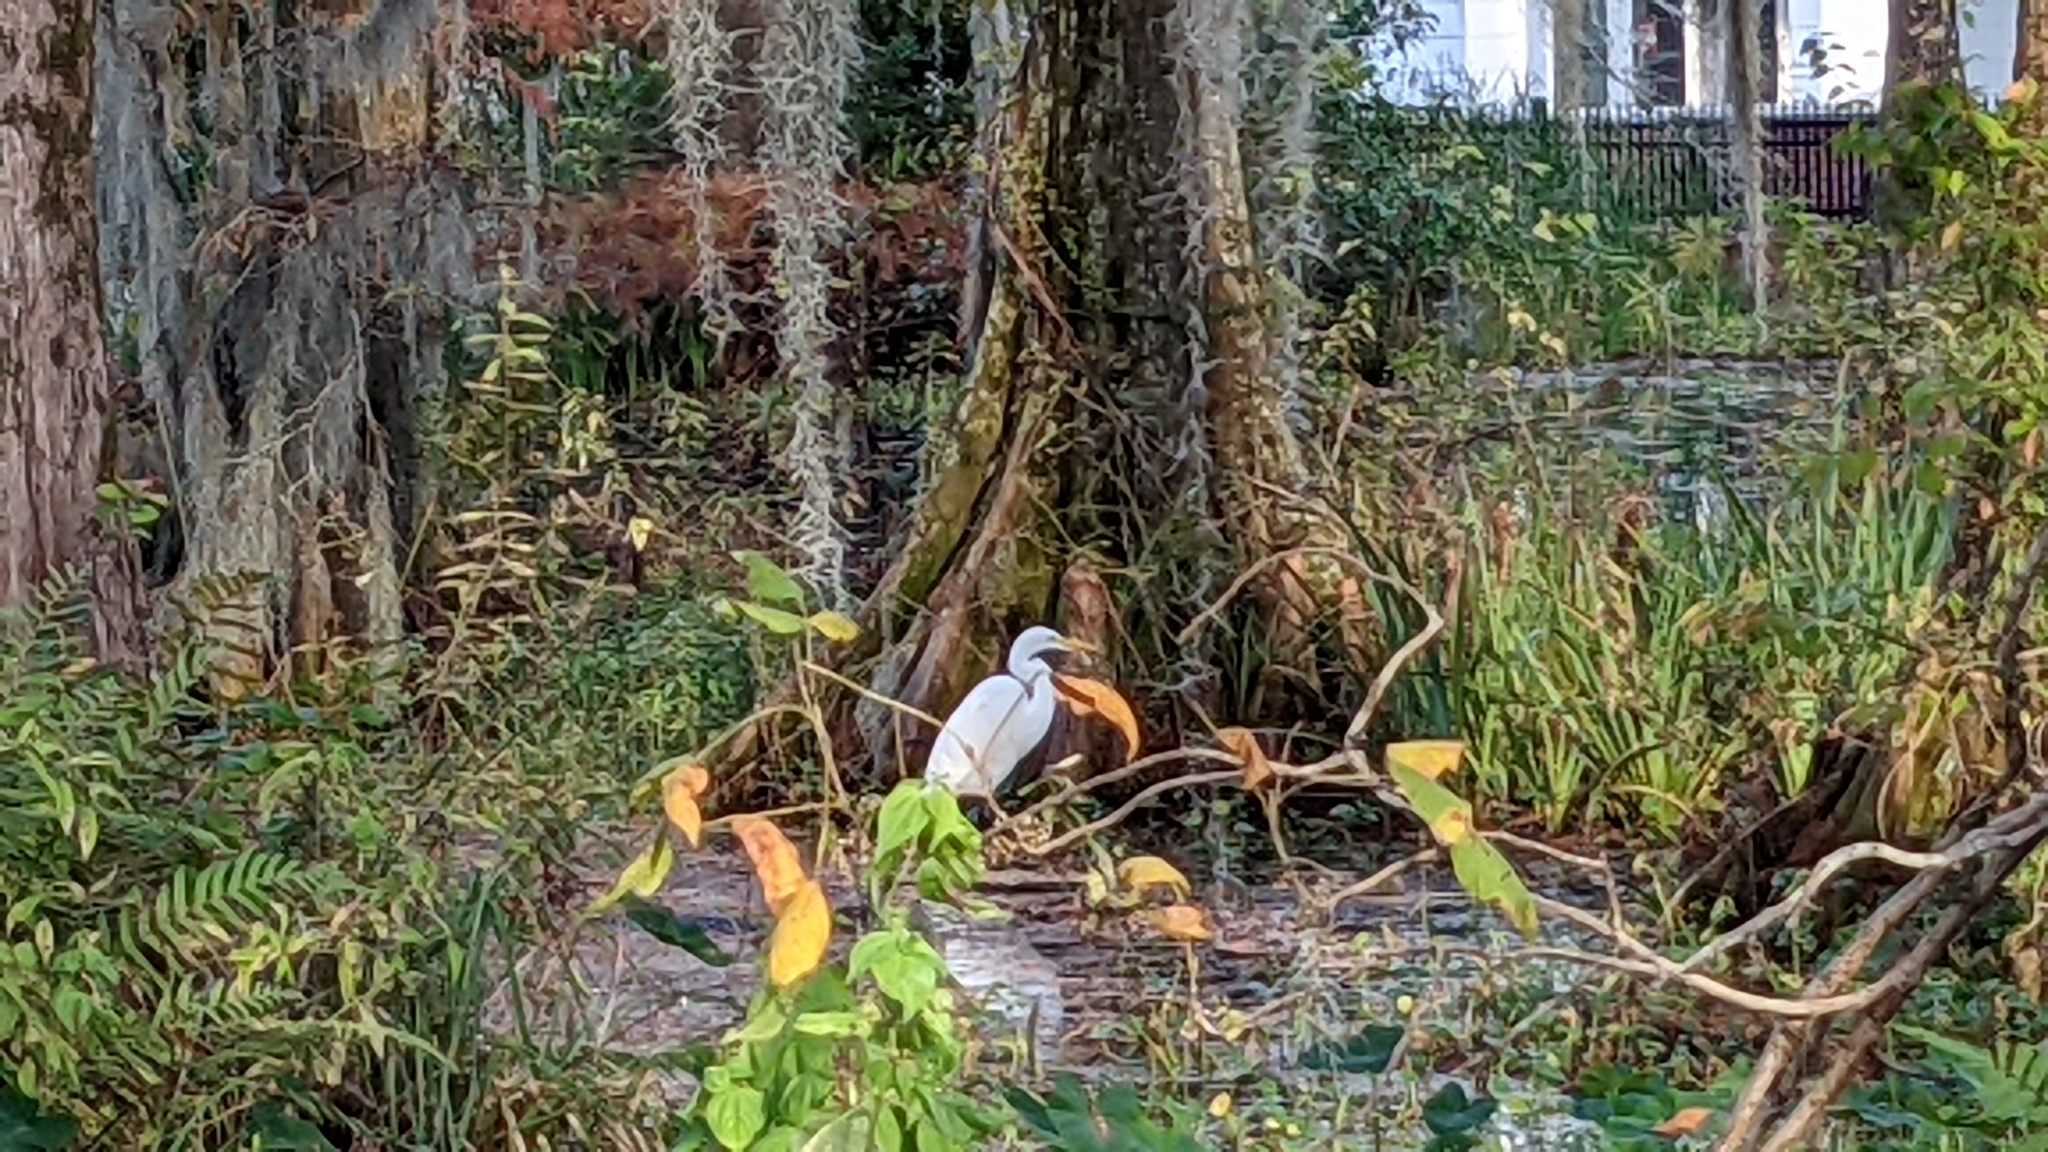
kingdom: Animalia
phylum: Chordata
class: Aves
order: Pelecaniformes
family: Ardeidae
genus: Ardea
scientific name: Ardea alba
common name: Great egret
